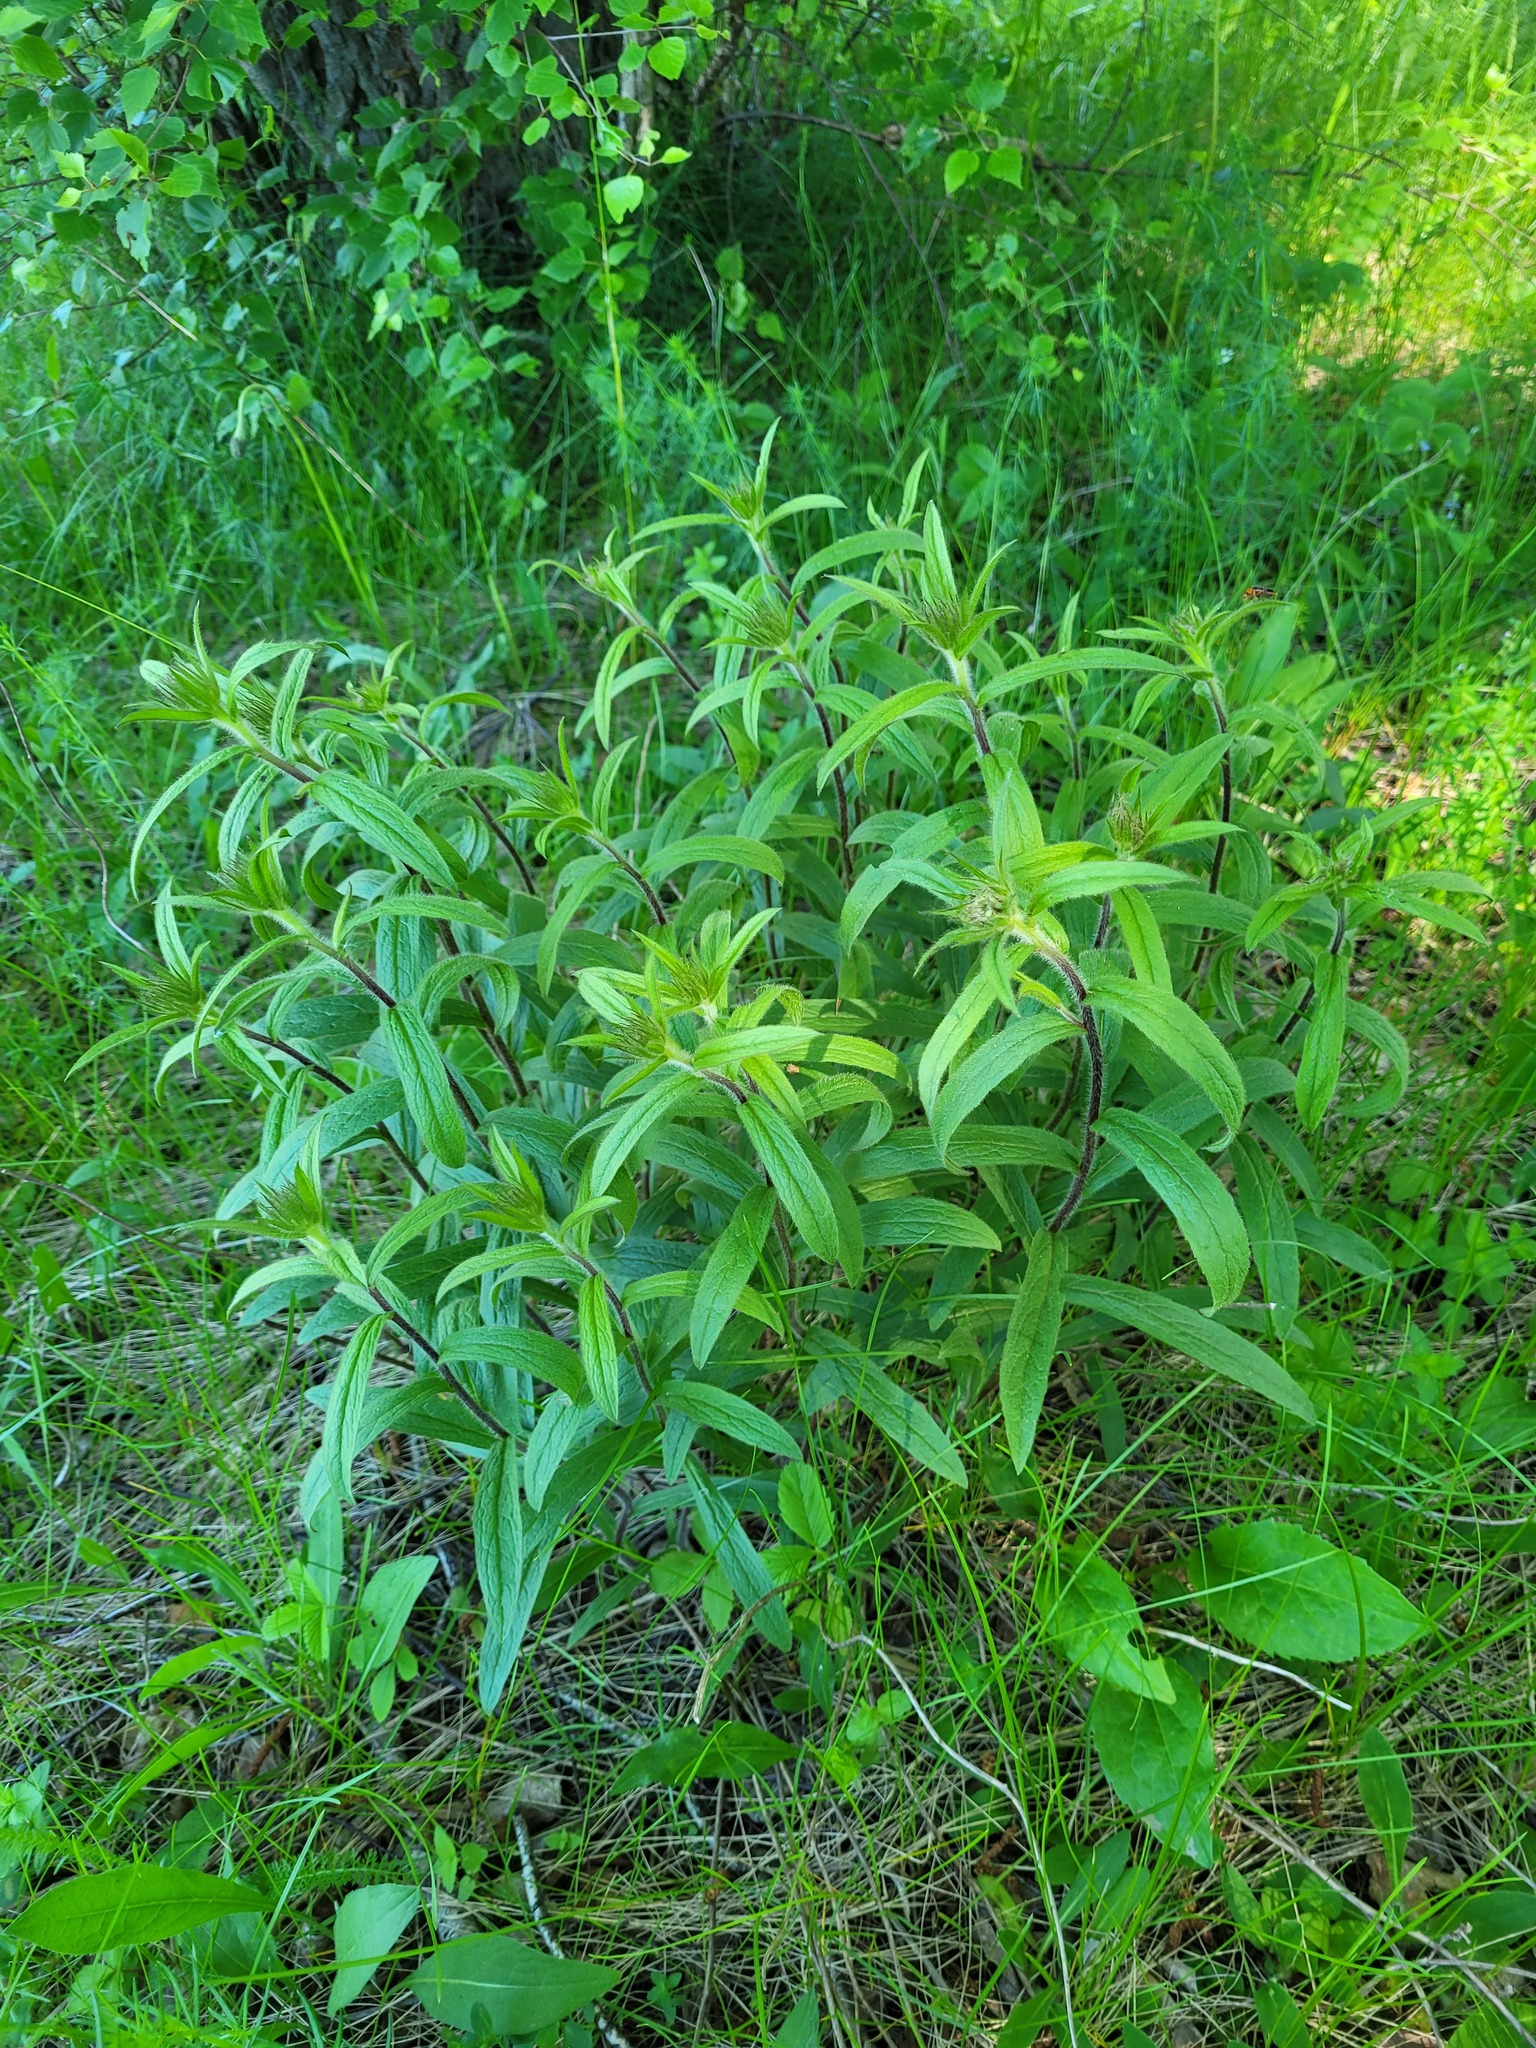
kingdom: Plantae
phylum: Tracheophyta
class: Magnoliopsida
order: Asterales
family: Asteraceae
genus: Pentanema
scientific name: Pentanema hirtum
